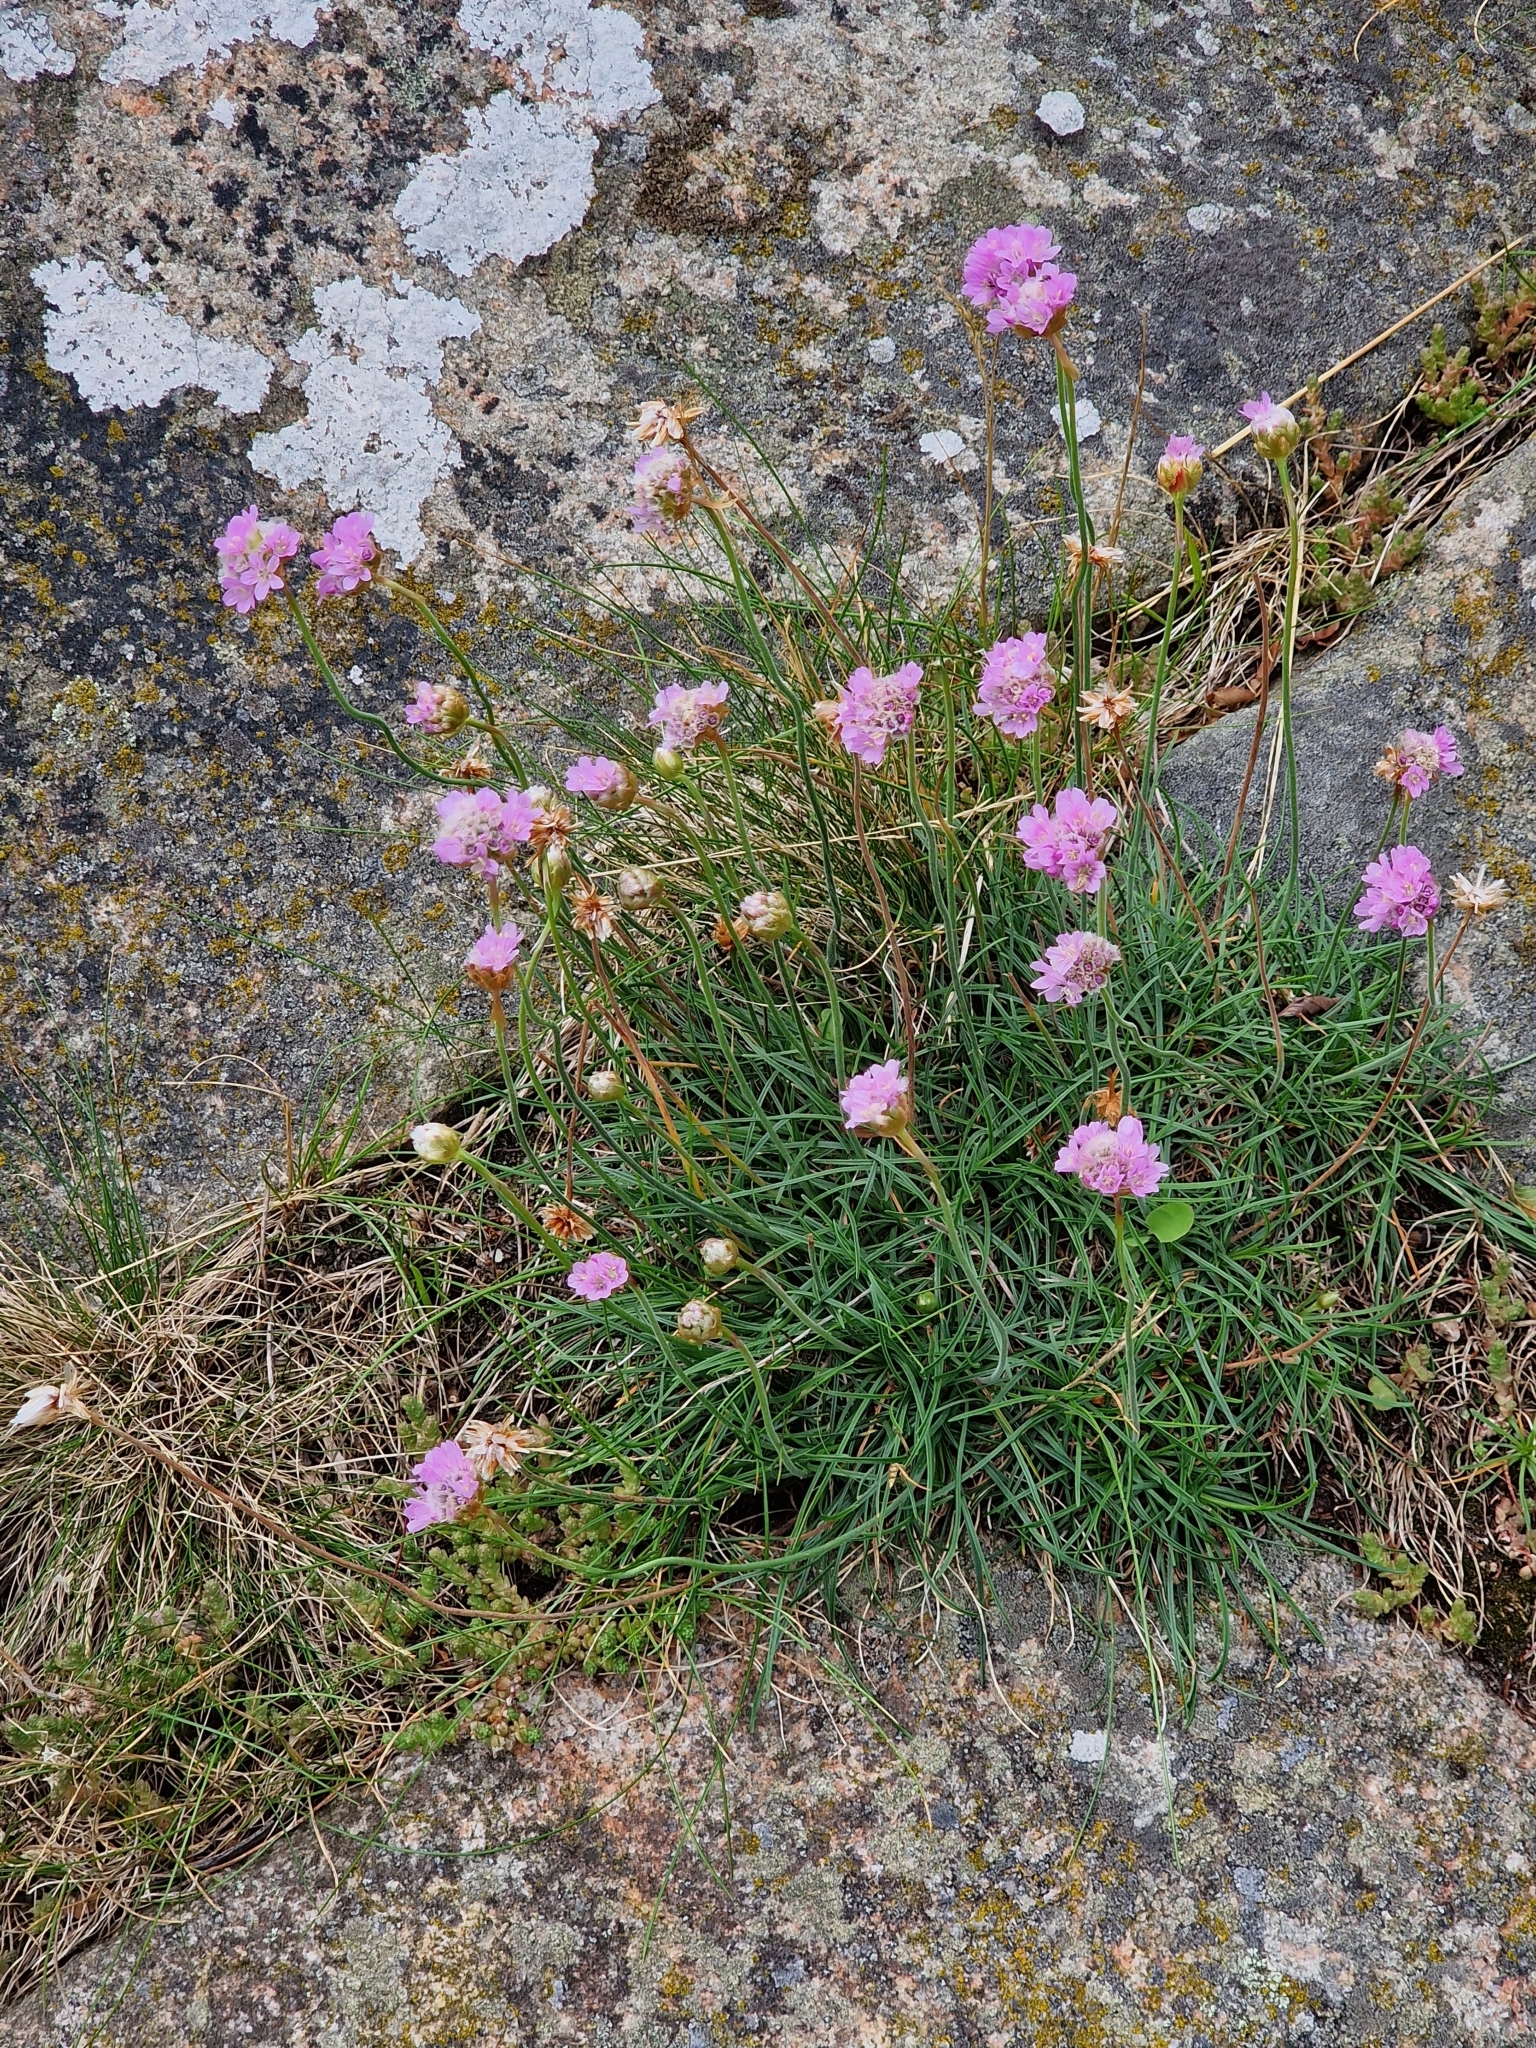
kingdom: Plantae
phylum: Tracheophyta
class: Magnoliopsida
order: Caryophyllales
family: Plumbaginaceae
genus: Armeria
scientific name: Armeria maritima
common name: Thrift
